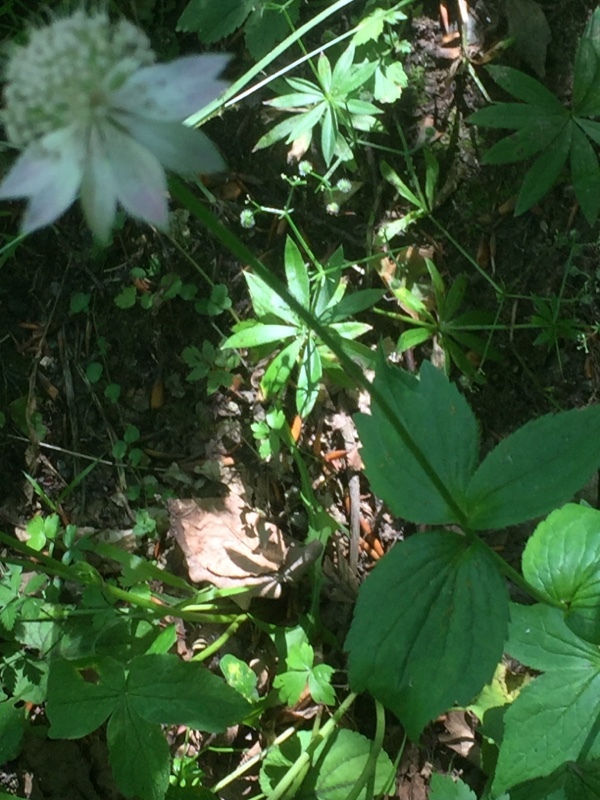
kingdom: Plantae
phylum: Tracheophyta
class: Magnoliopsida
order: Apiales
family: Apiaceae
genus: Astrantia
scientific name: Astrantia maxima
